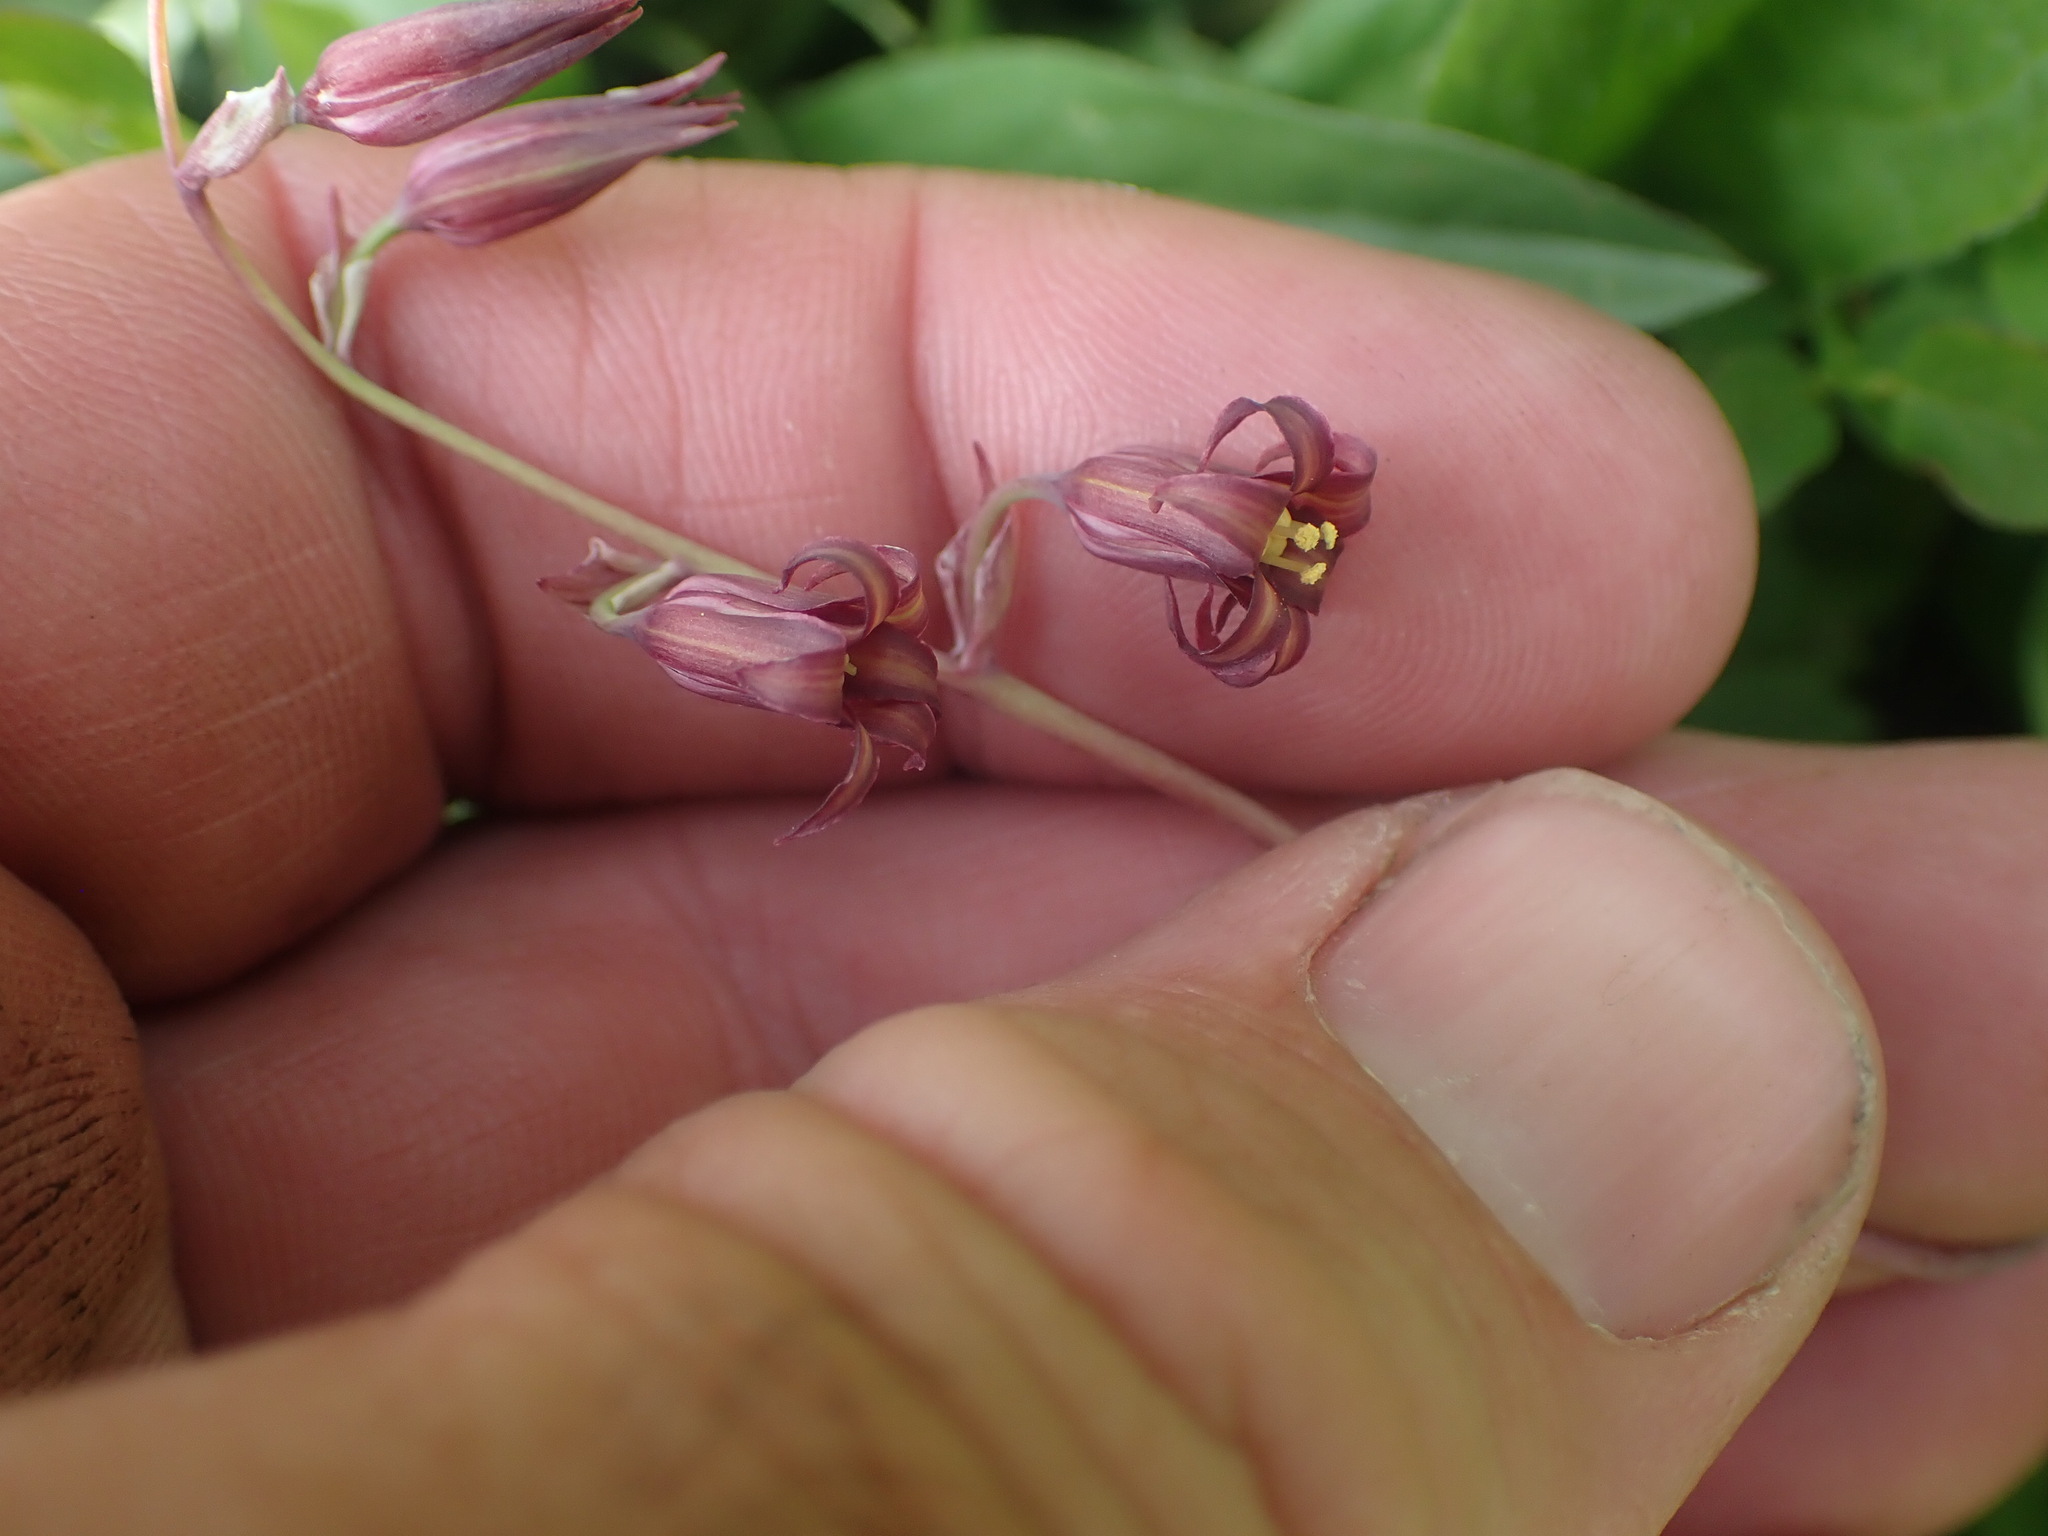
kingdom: Plantae
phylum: Tracheophyta
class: Liliopsida
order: Liliales
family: Melanthiaceae
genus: Anticlea
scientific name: Anticlea occidentalis
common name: Bronze-bells
